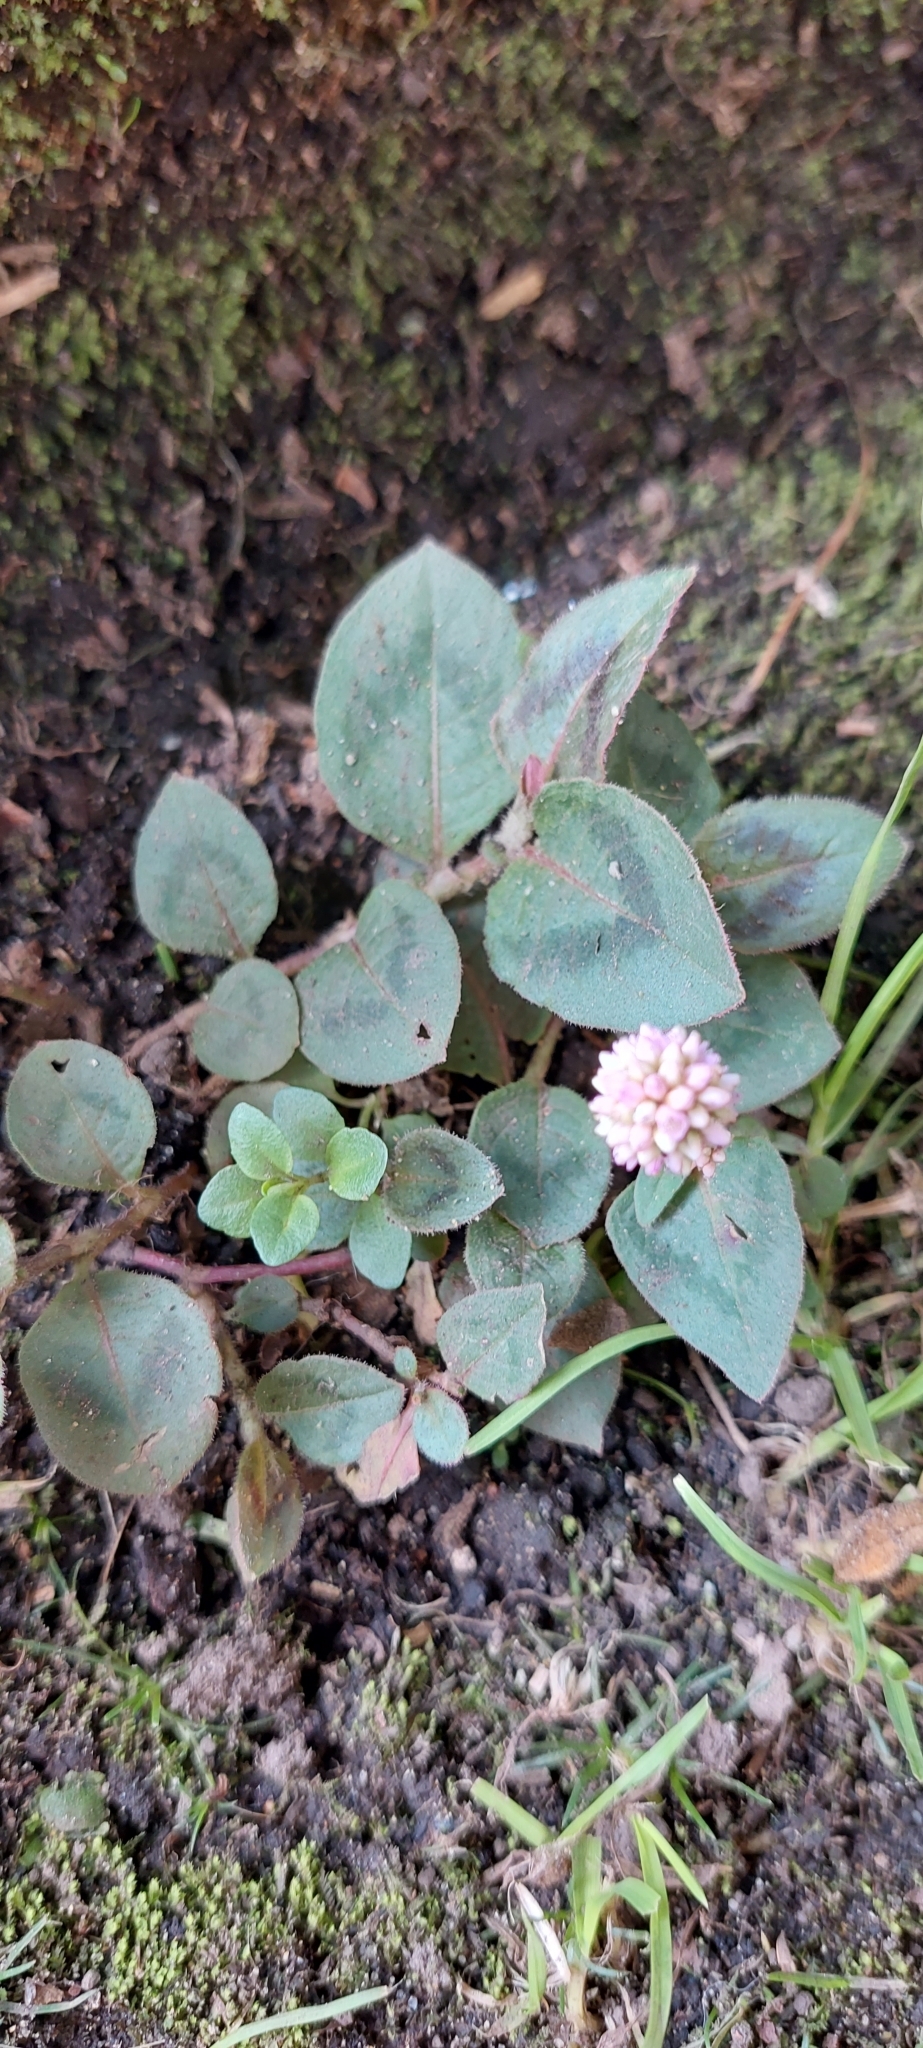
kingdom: Plantae
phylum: Tracheophyta
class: Magnoliopsida
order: Caryophyllales
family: Polygonaceae
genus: Persicaria
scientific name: Persicaria capitata
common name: Pinkhead smartweed
